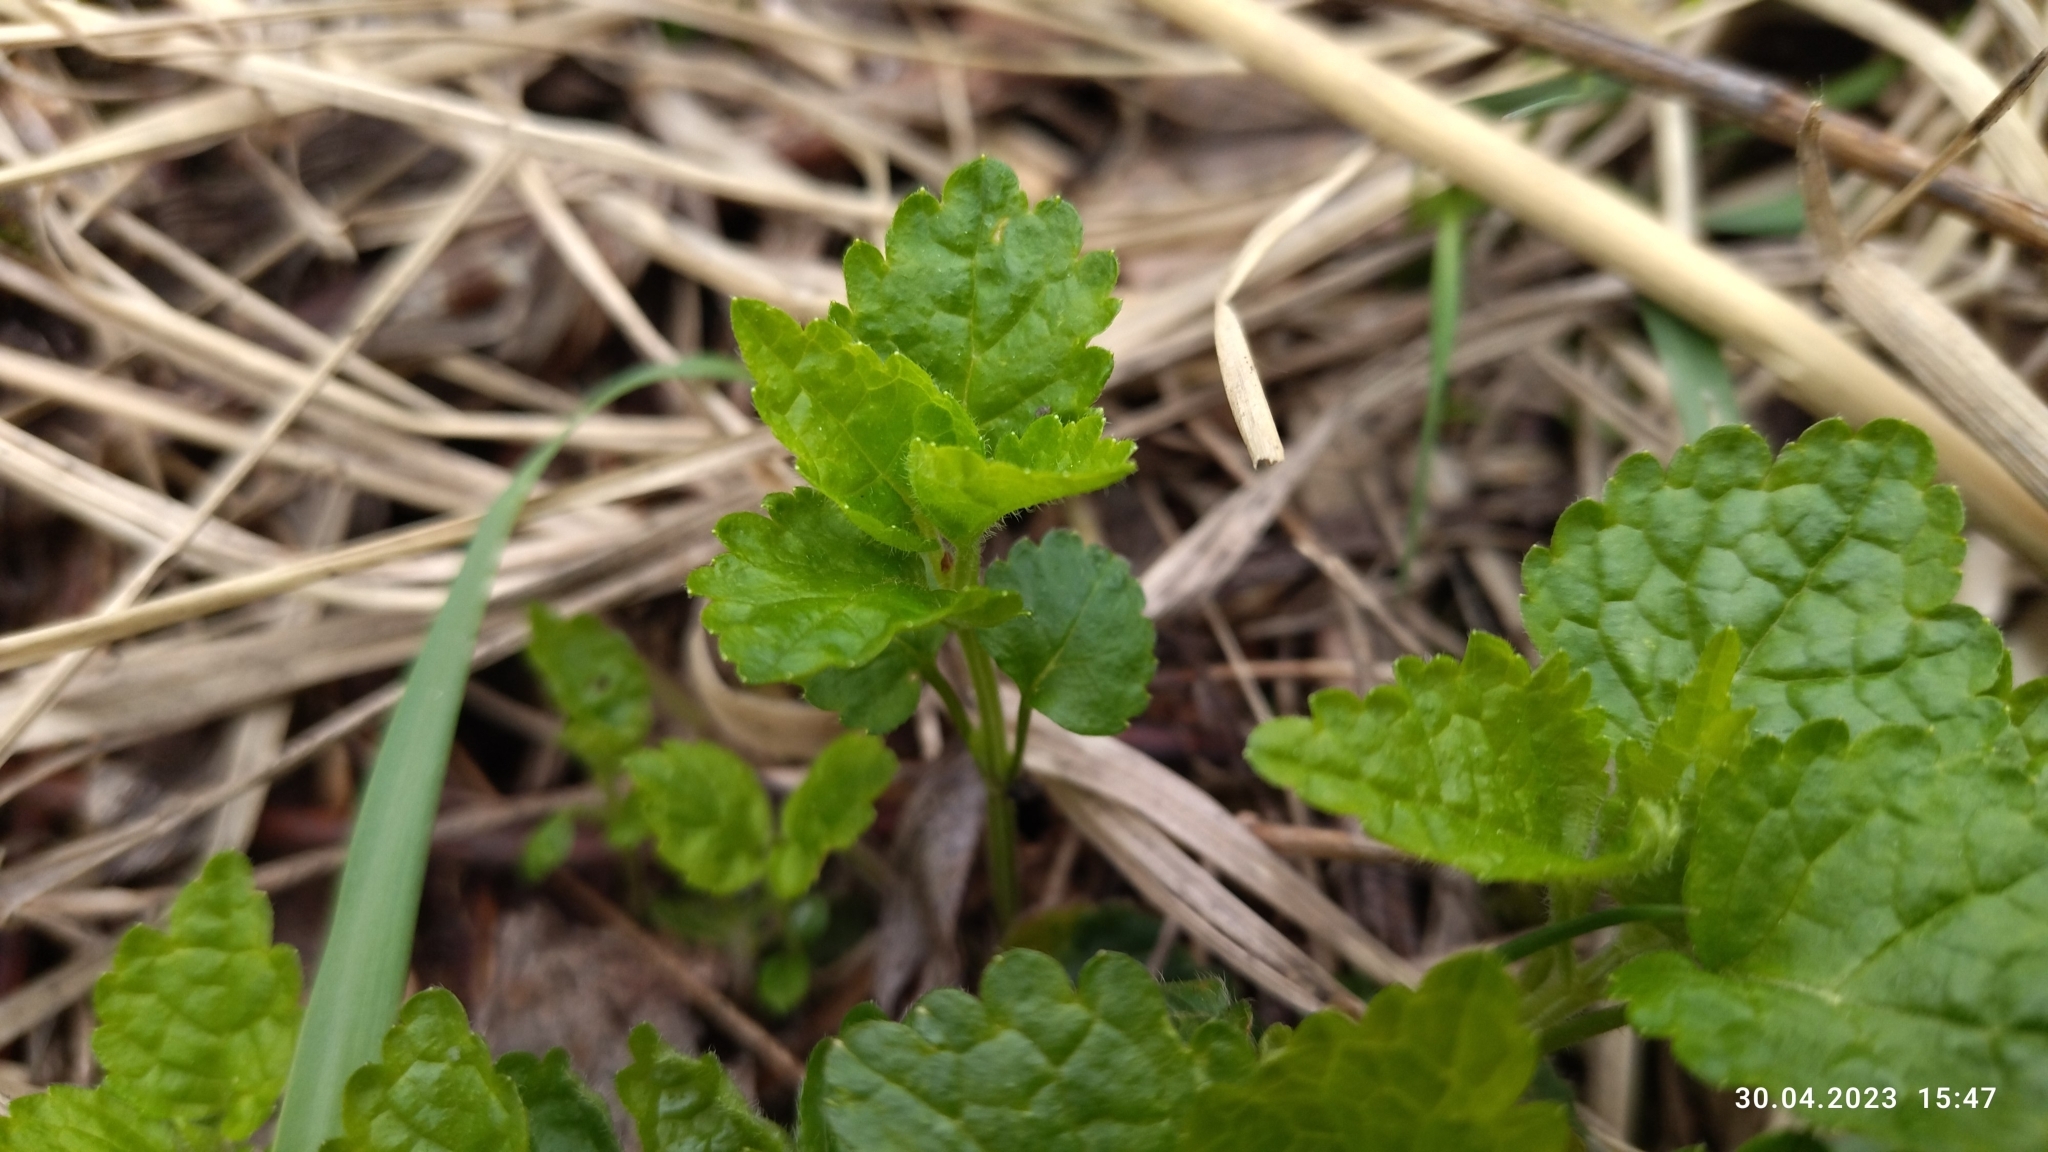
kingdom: Plantae
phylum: Tracheophyta
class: Magnoliopsida
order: Lamiales
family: Lamiaceae
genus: Lamium
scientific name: Lamium galeobdolon
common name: Yellow archangel
